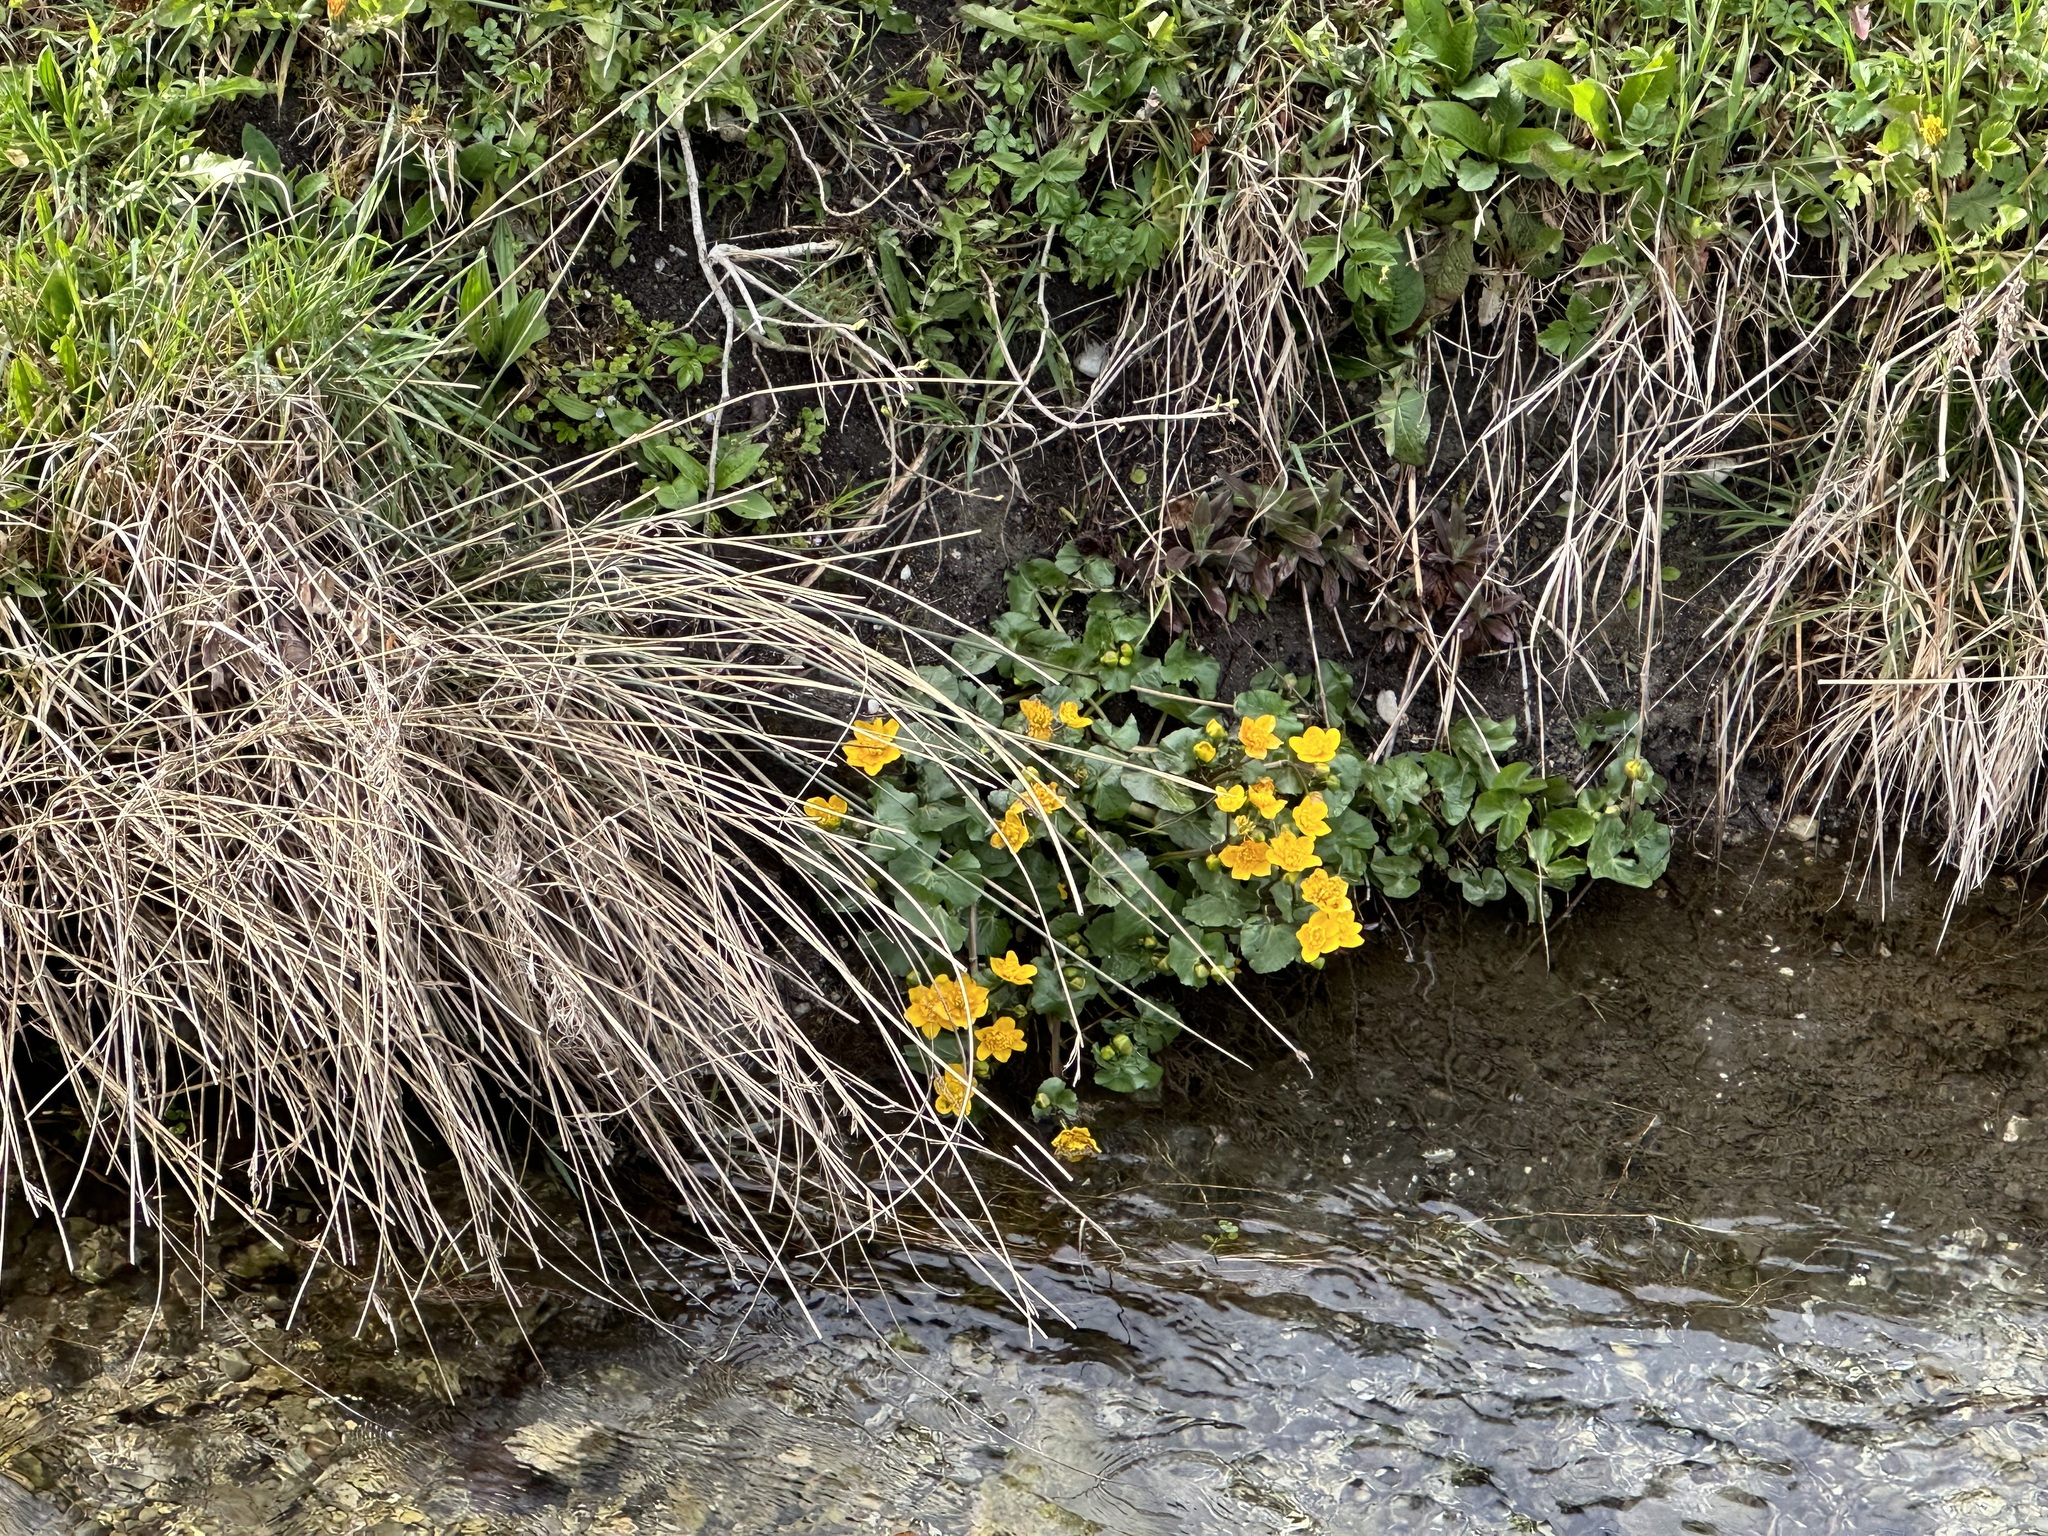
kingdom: Plantae
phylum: Tracheophyta
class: Magnoliopsida
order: Ranunculales
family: Ranunculaceae
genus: Caltha
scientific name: Caltha palustris
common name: Marsh marigold
